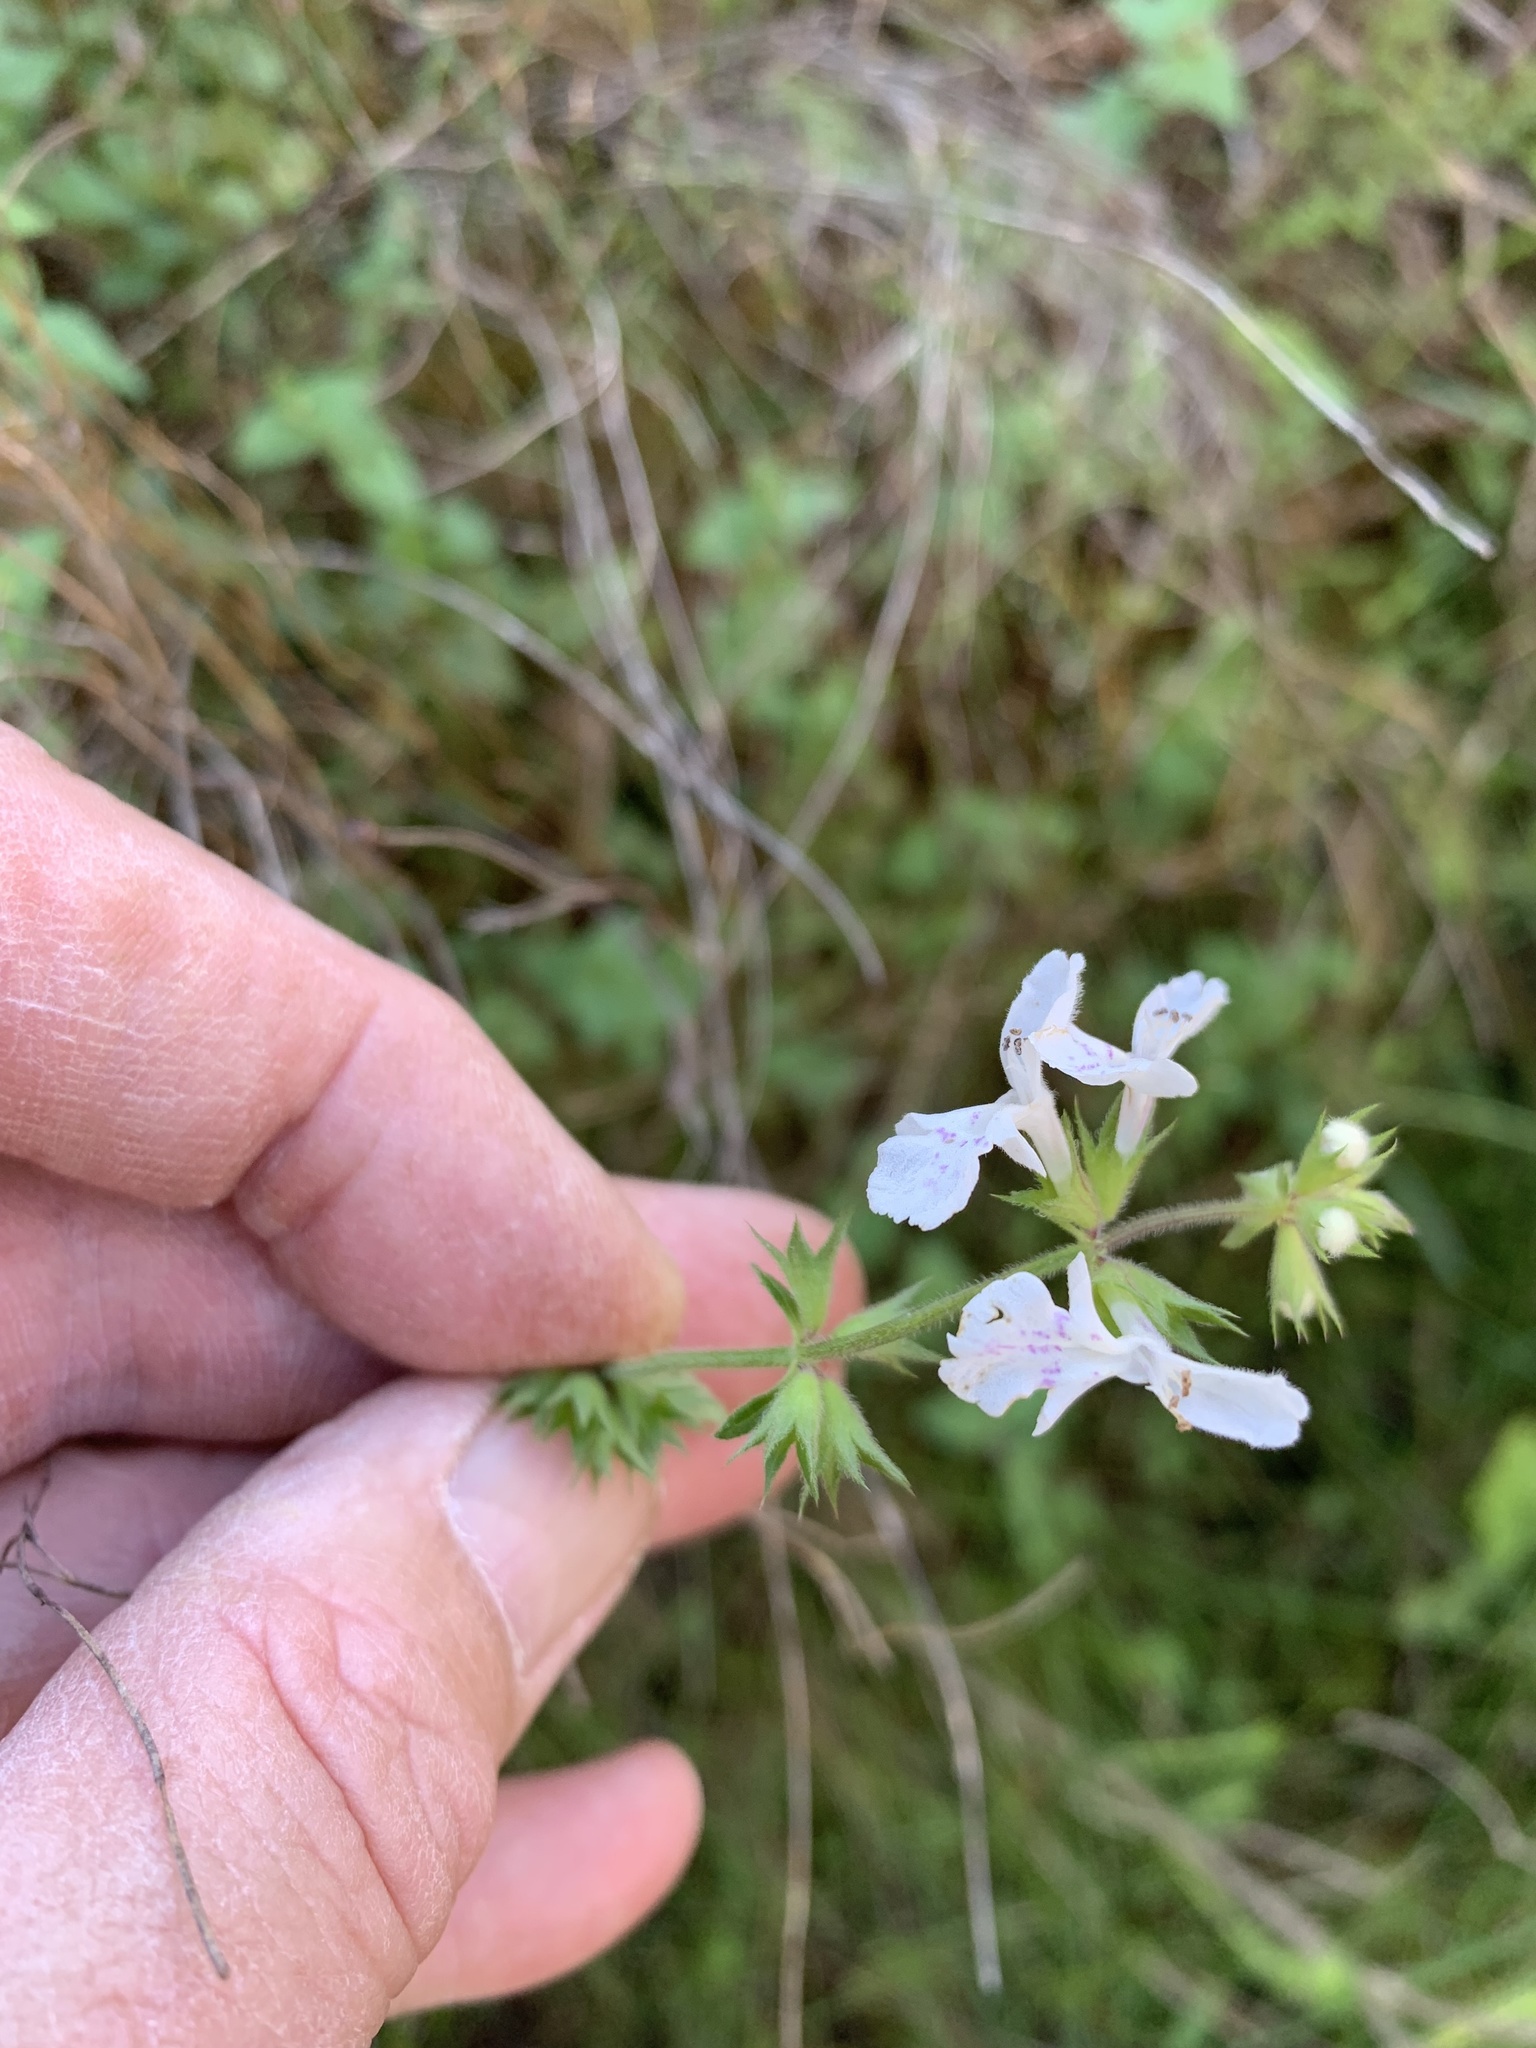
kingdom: Plantae
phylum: Tracheophyta
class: Magnoliopsida
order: Lamiales
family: Lamiaceae
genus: Stachys
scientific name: Stachys aethiopica
